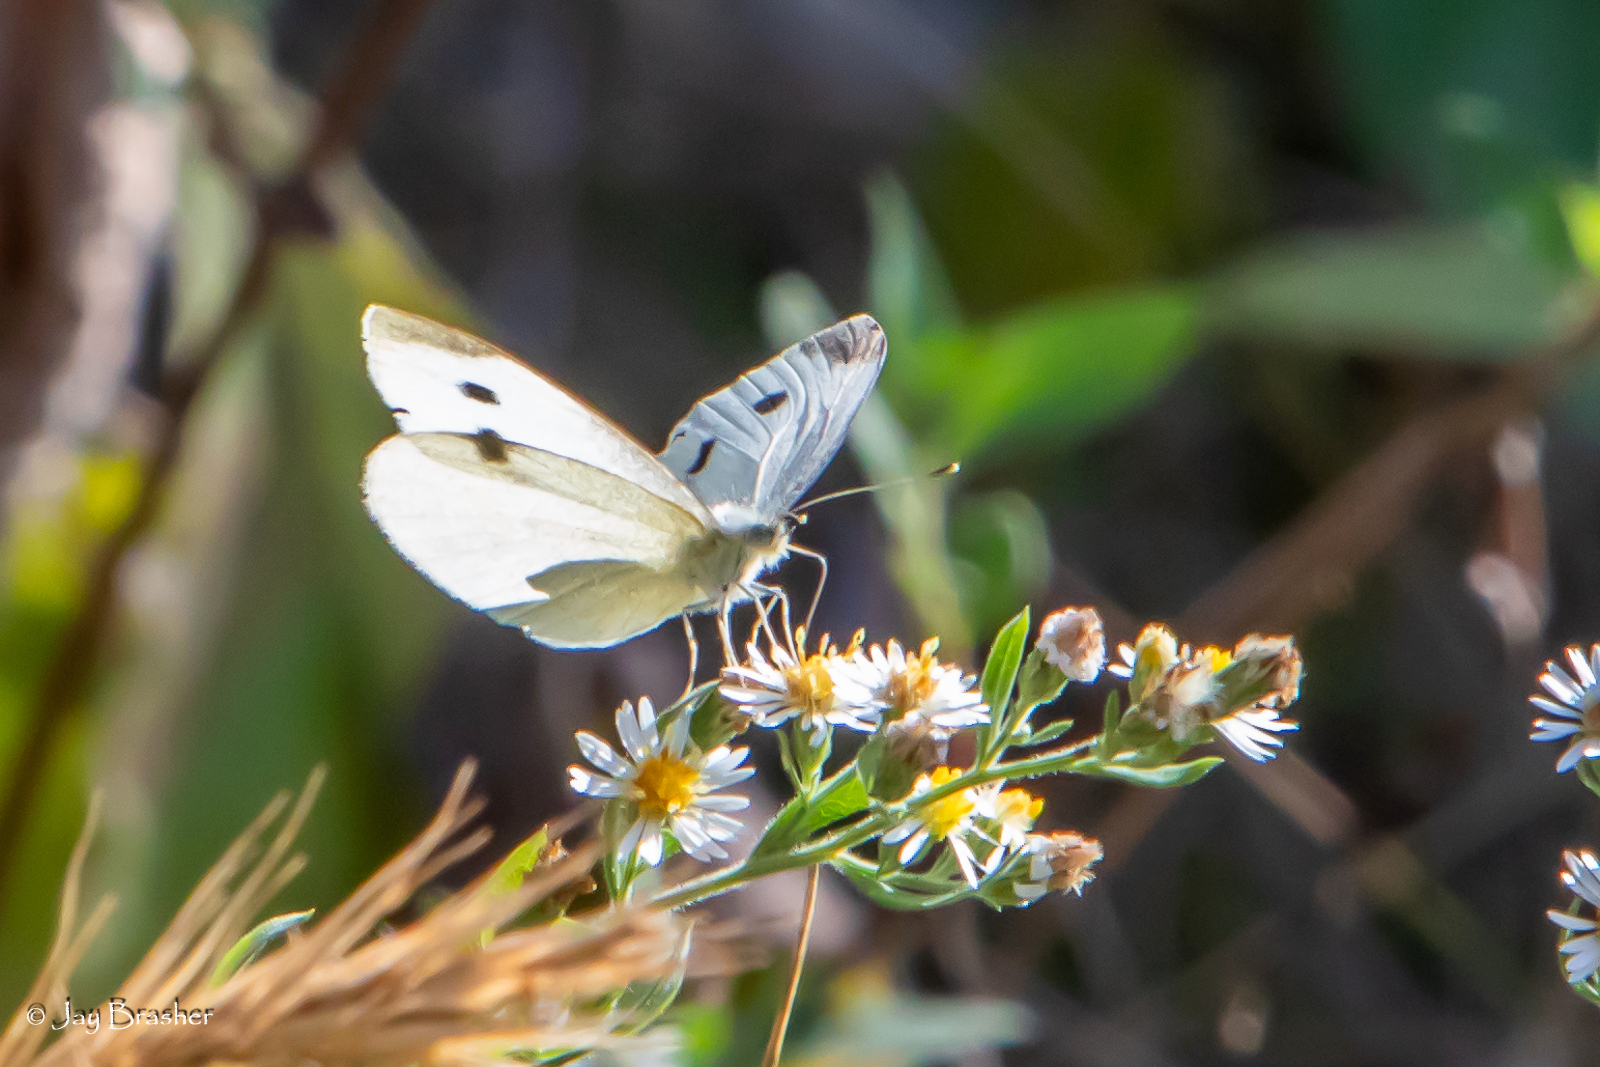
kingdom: Animalia
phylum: Arthropoda
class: Insecta
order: Lepidoptera
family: Pieridae
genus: Pieris
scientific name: Pieris rapae
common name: Small white
